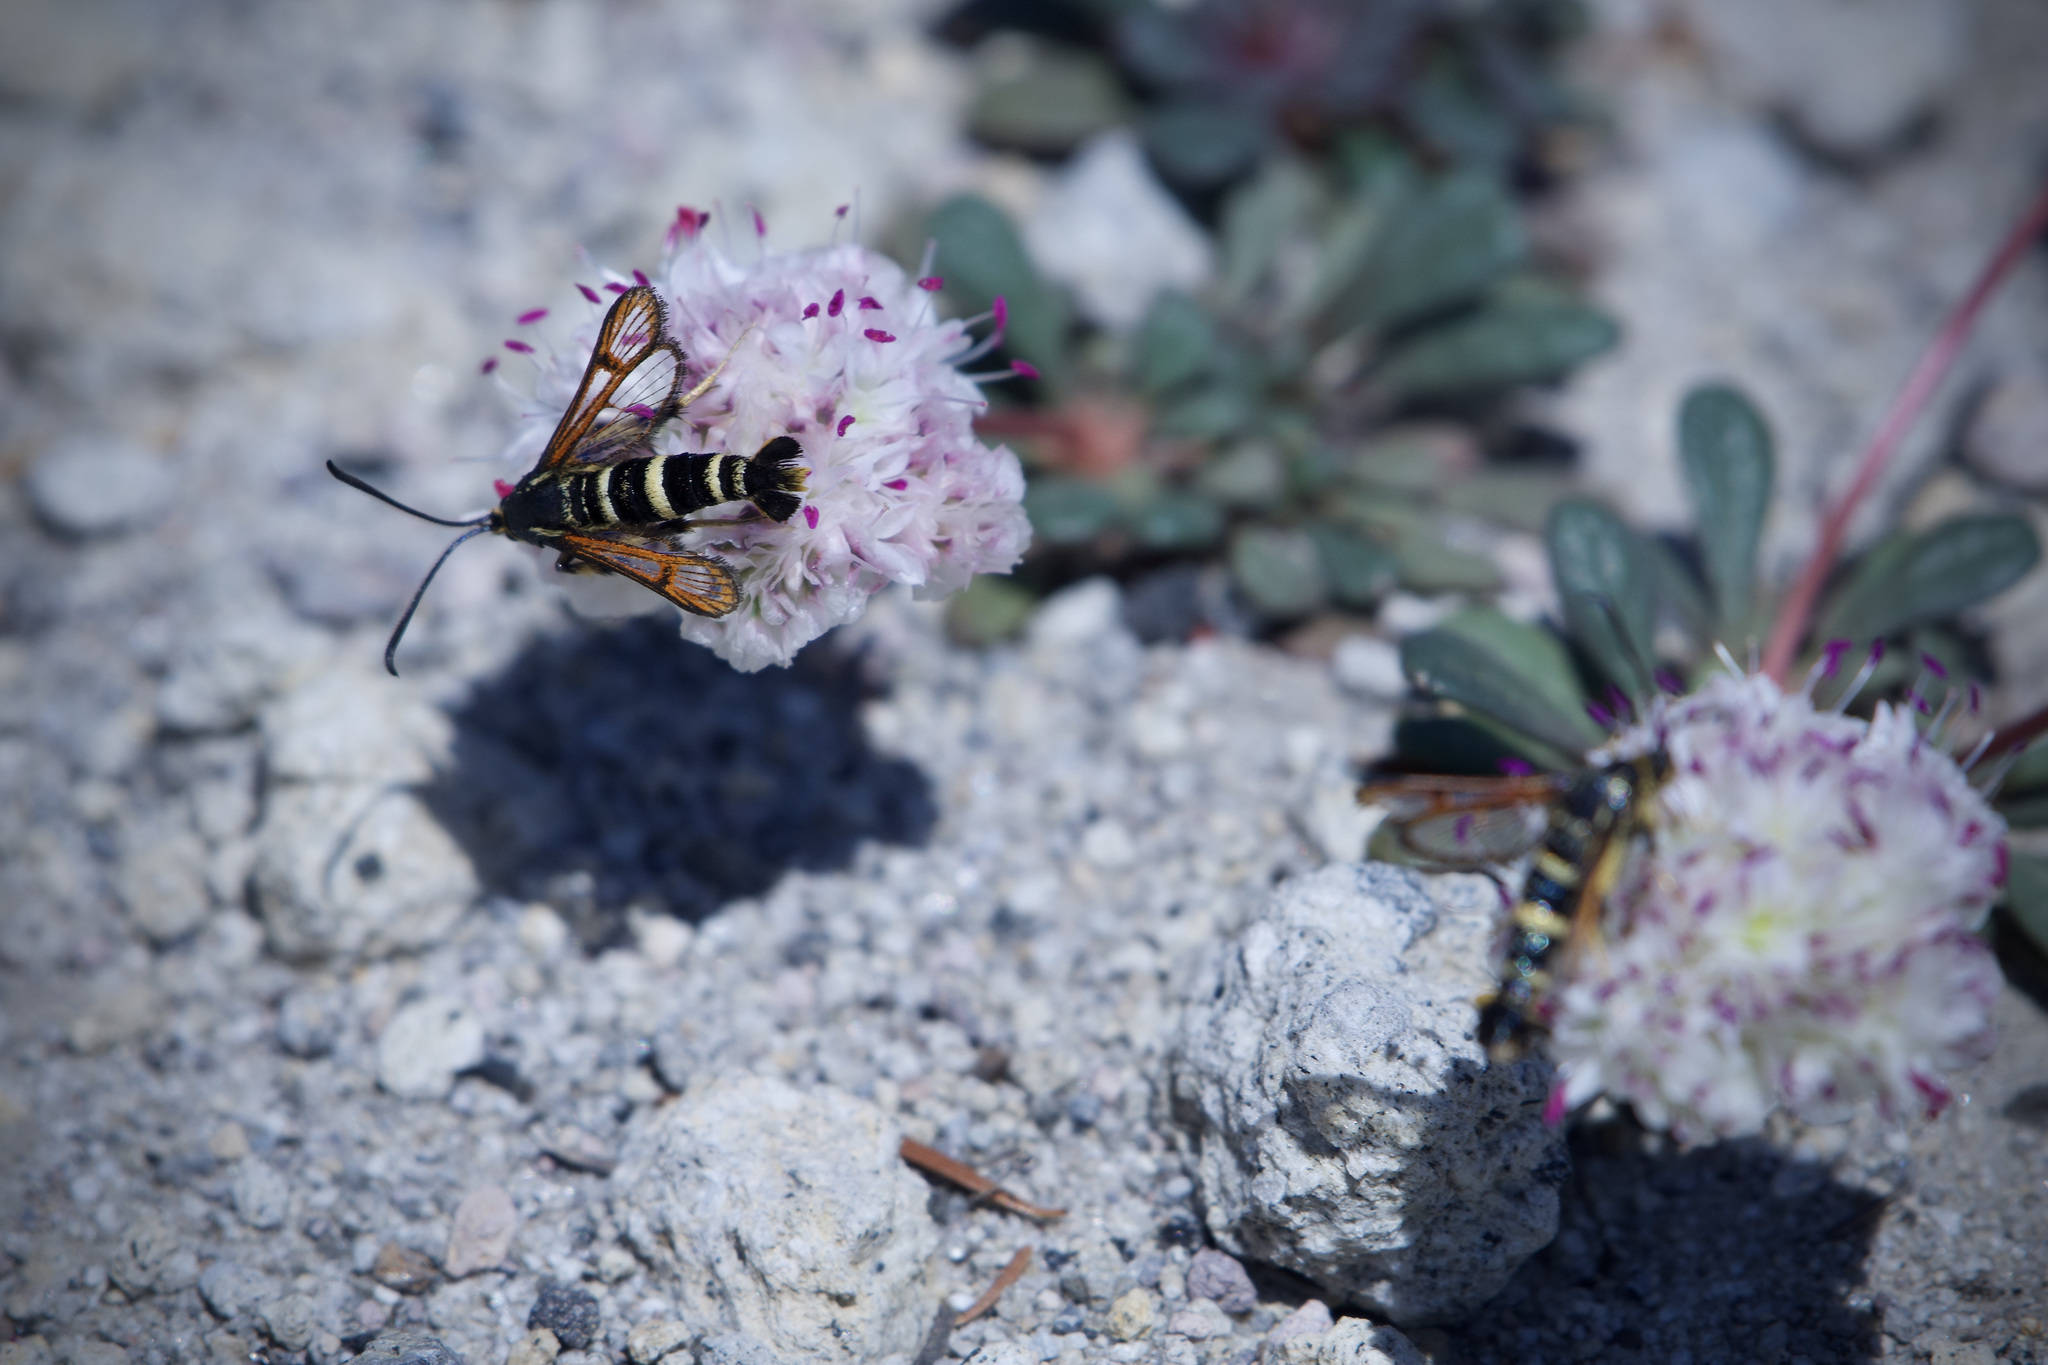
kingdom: Animalia
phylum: Arthropoda
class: Insecta
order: Lepidoptera
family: Sesiidae
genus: Synanthedon
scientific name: Synanthedon chrysidipennis
